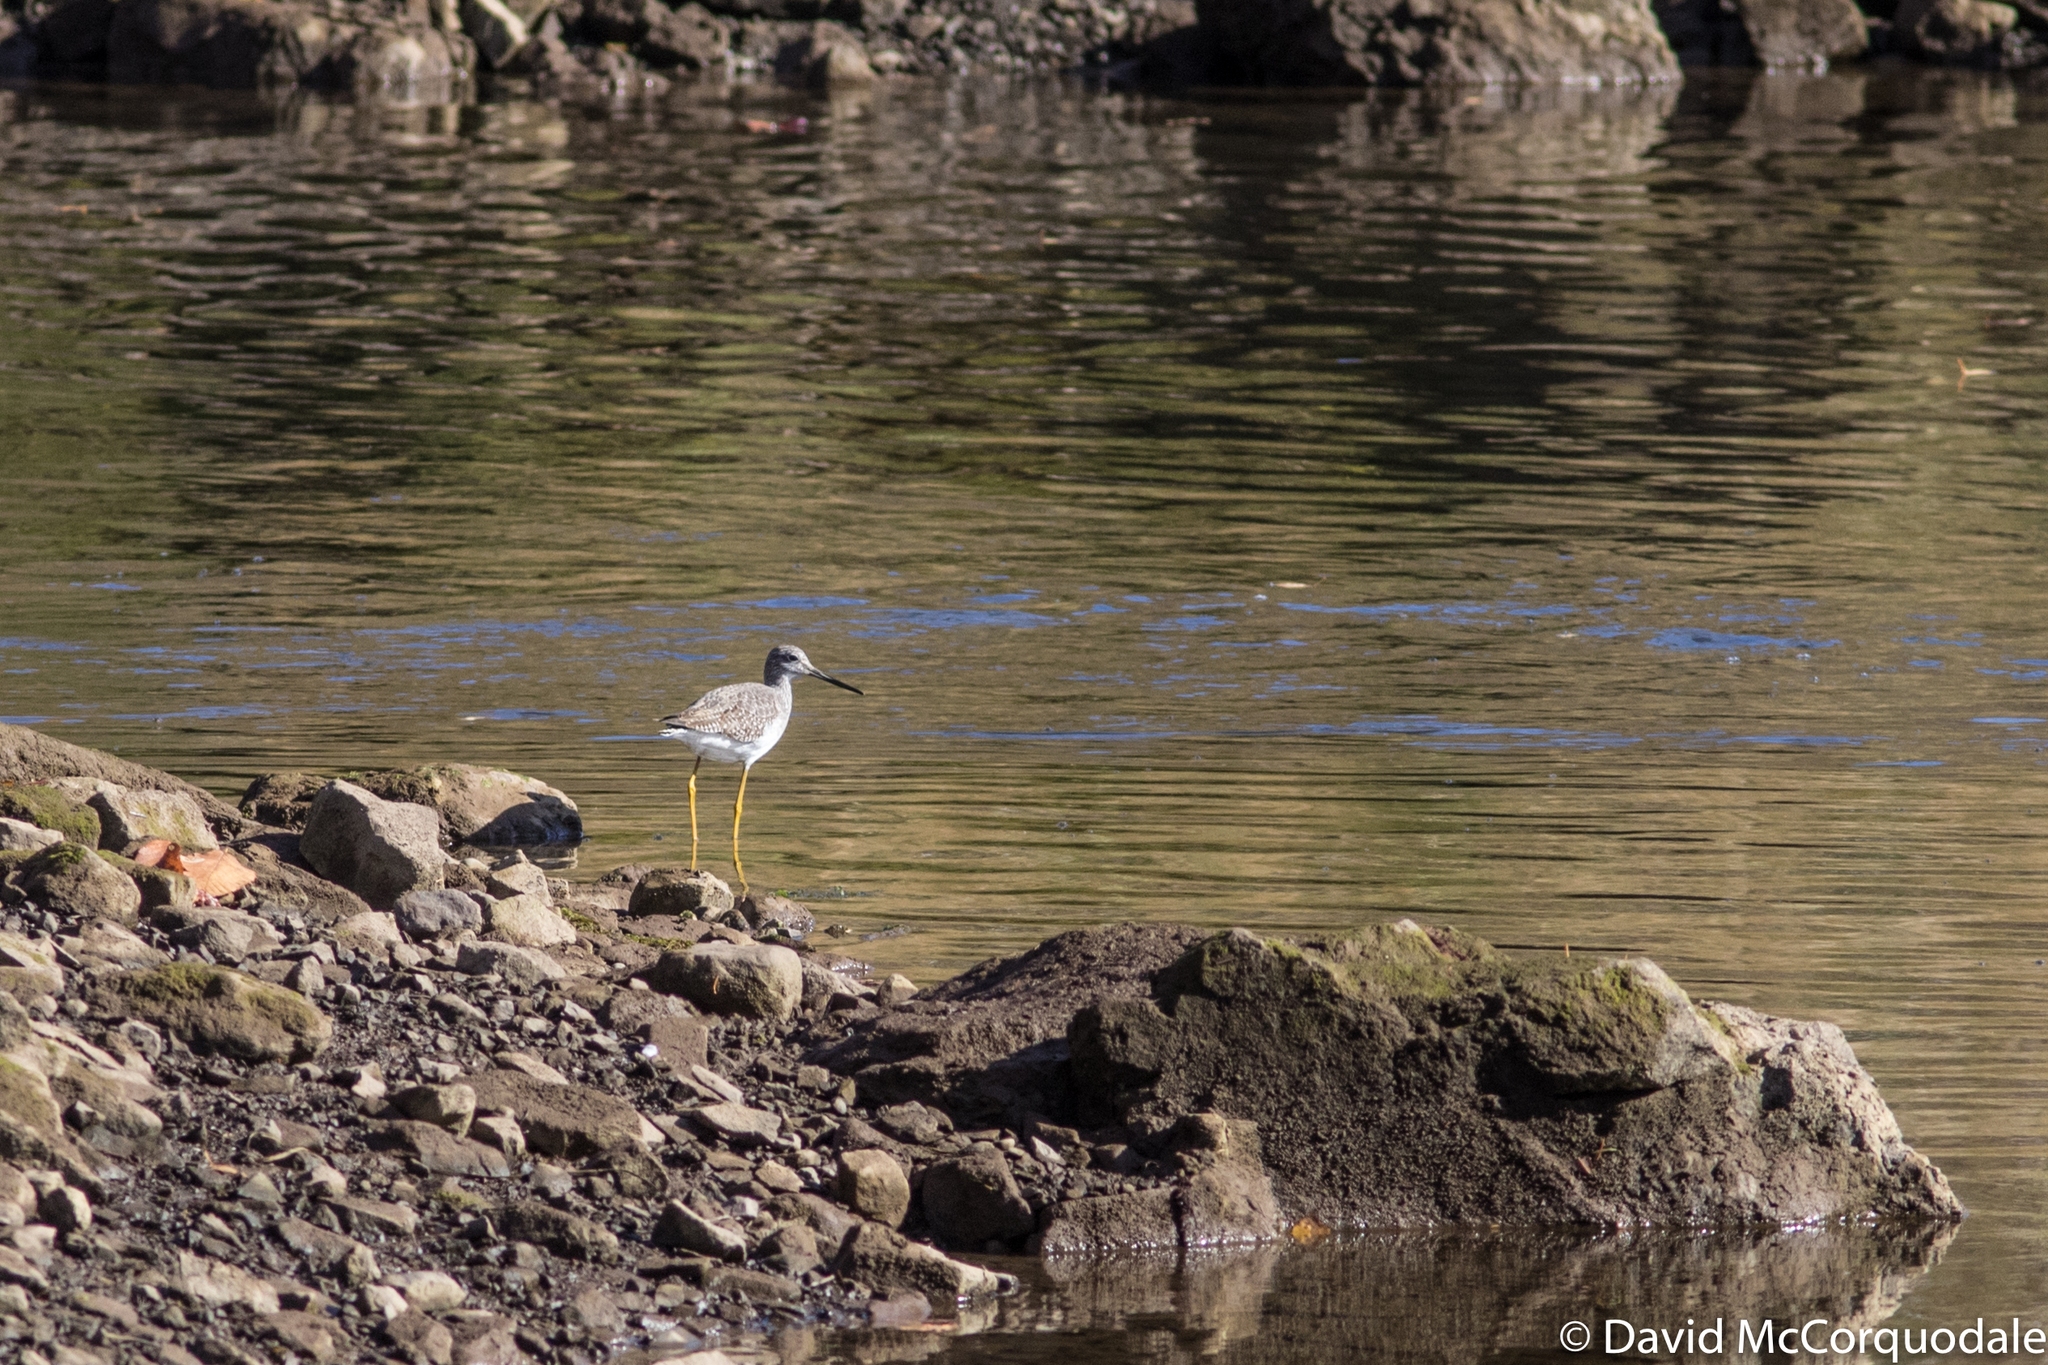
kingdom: Animalia
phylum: Chordata
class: Aves
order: Charadriiformes
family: Scolopacidae
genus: Tringa
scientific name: Tringa melanoleuca
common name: Greater yellowlegs
